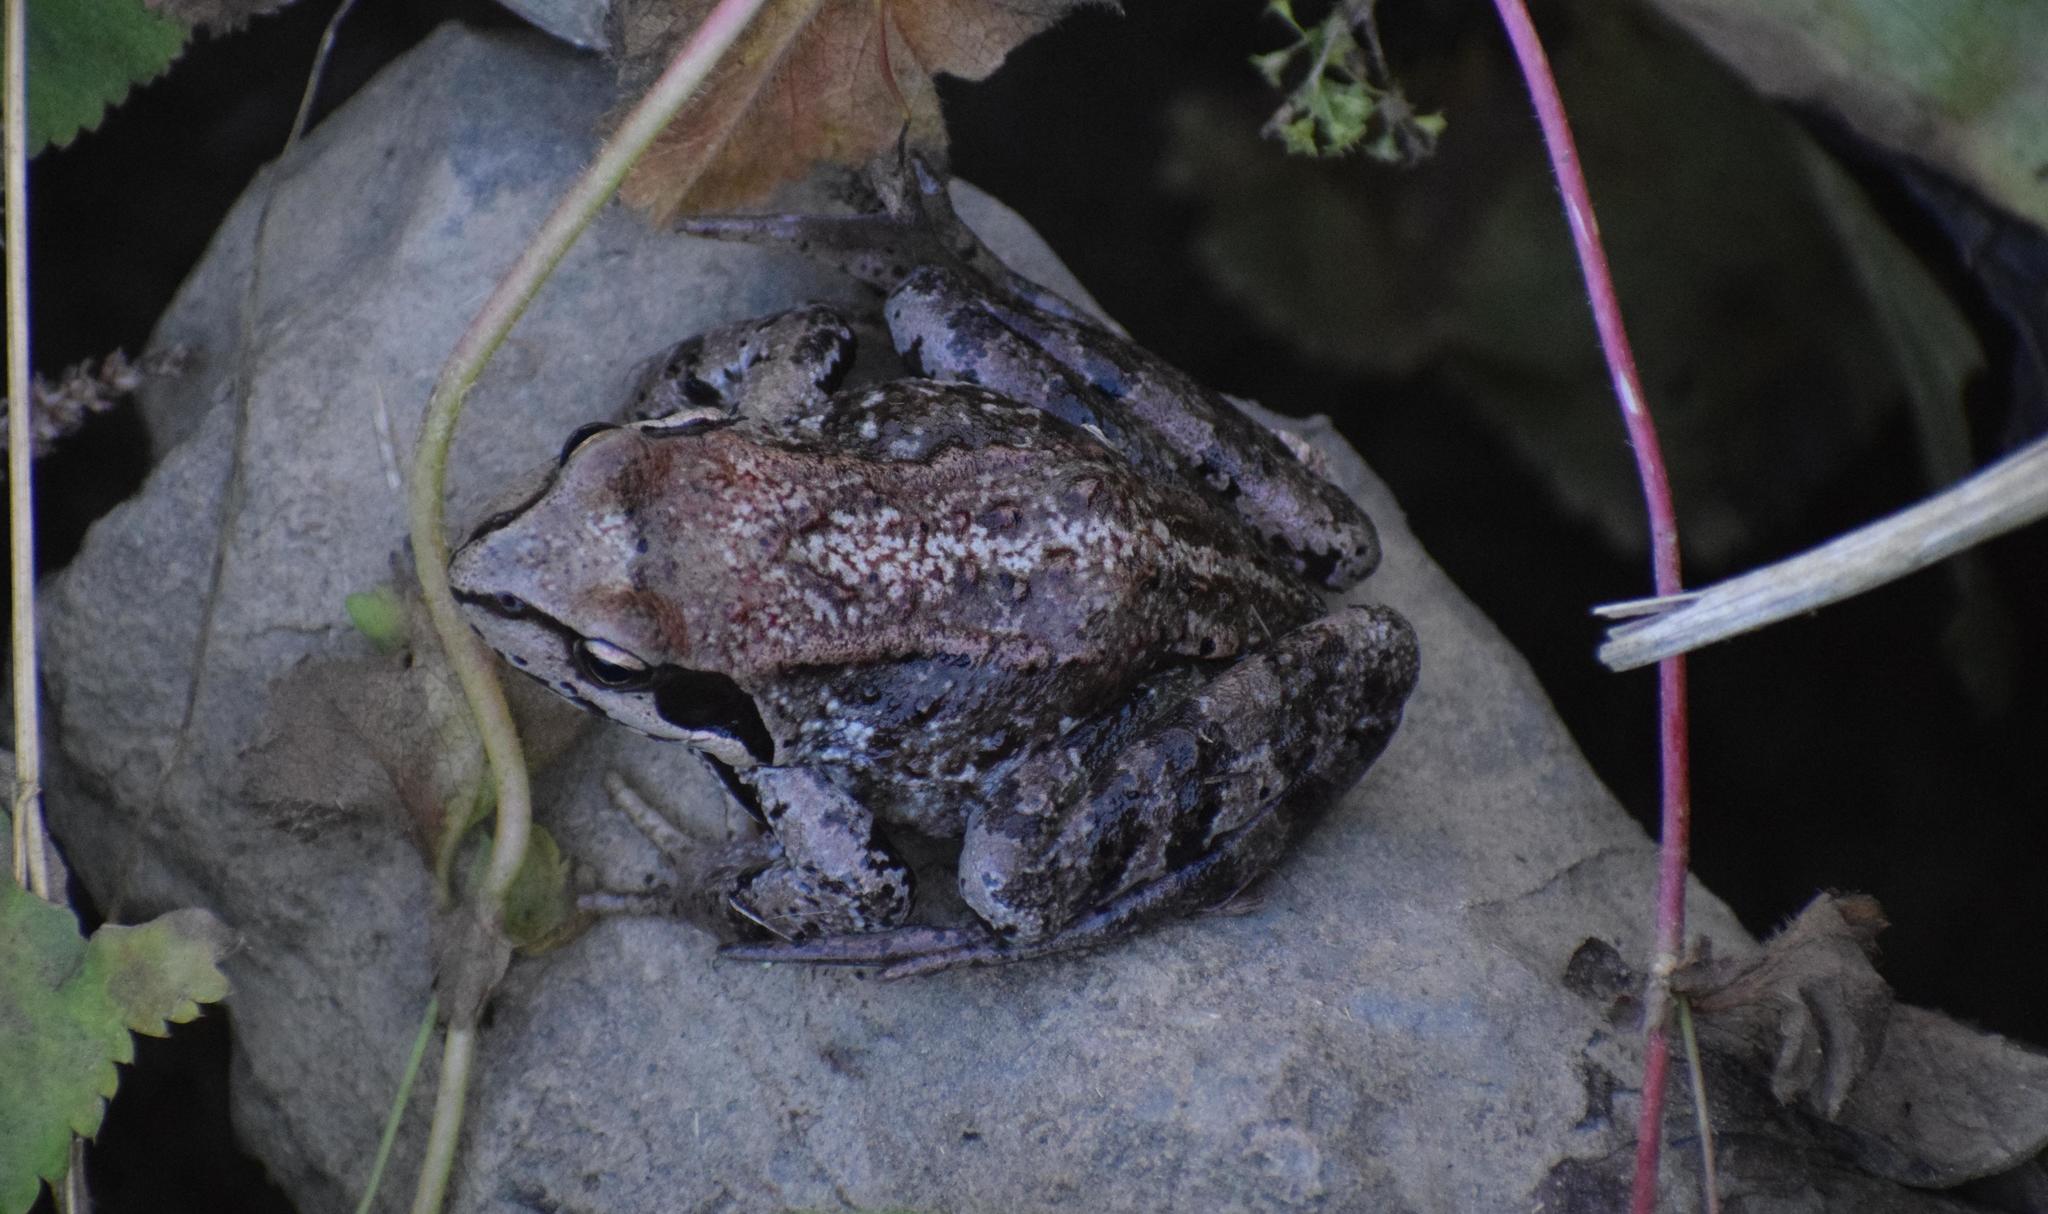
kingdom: Animalia
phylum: Chordata
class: Amphibia
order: Anura
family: Ranidae
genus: Rana
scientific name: Rana temporaria
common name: Common frog
